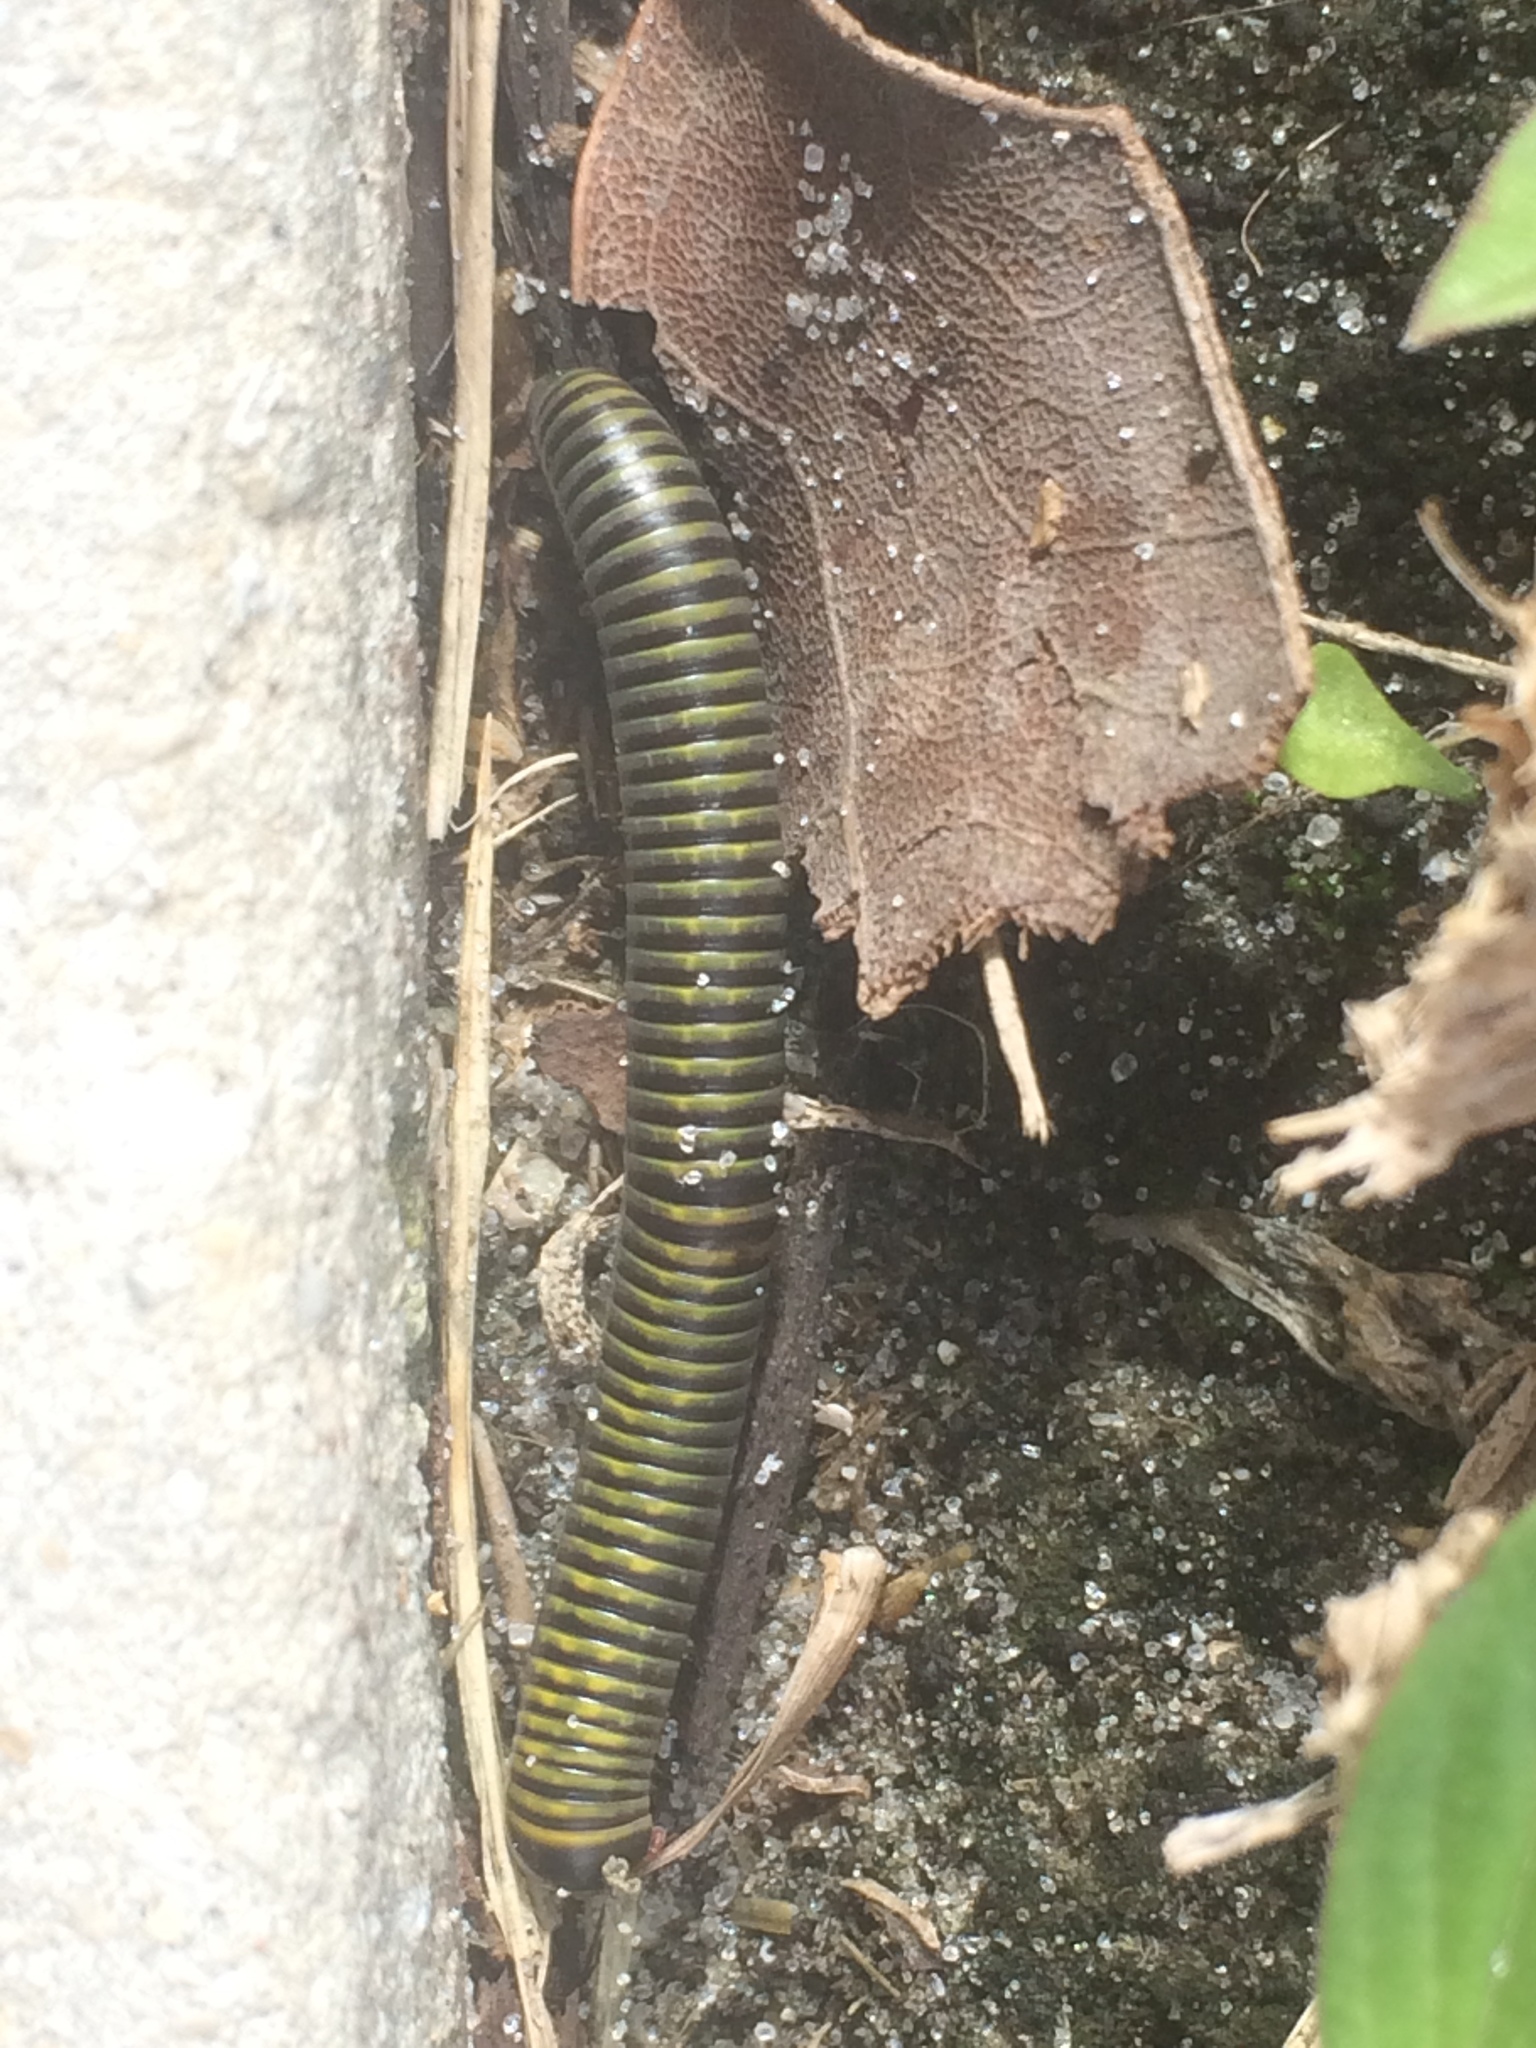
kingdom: Animalia
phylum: Arthropoda
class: Diplopoda
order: Spirobolida
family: Rhinocricidae
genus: Anadenobolus
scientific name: Anadenobolus monilicornis
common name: Caribbean millipede
